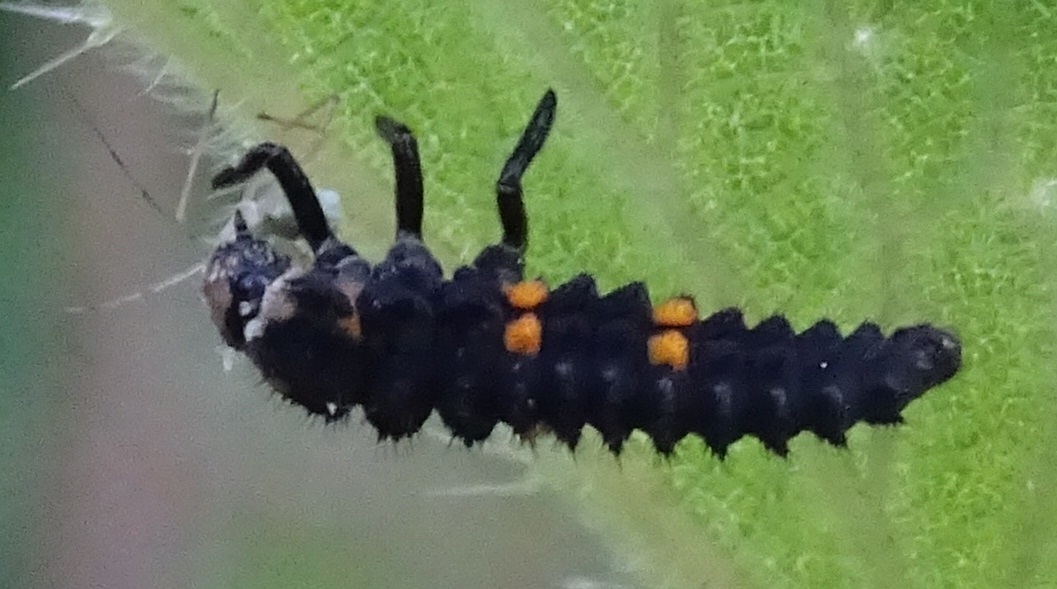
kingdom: Animalia
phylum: Arthropoda
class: Insecta
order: Coleoptera
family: Coccinellidae
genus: Coccinella
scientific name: Coccinella septempunctata
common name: Sevenspotted lady beetle
